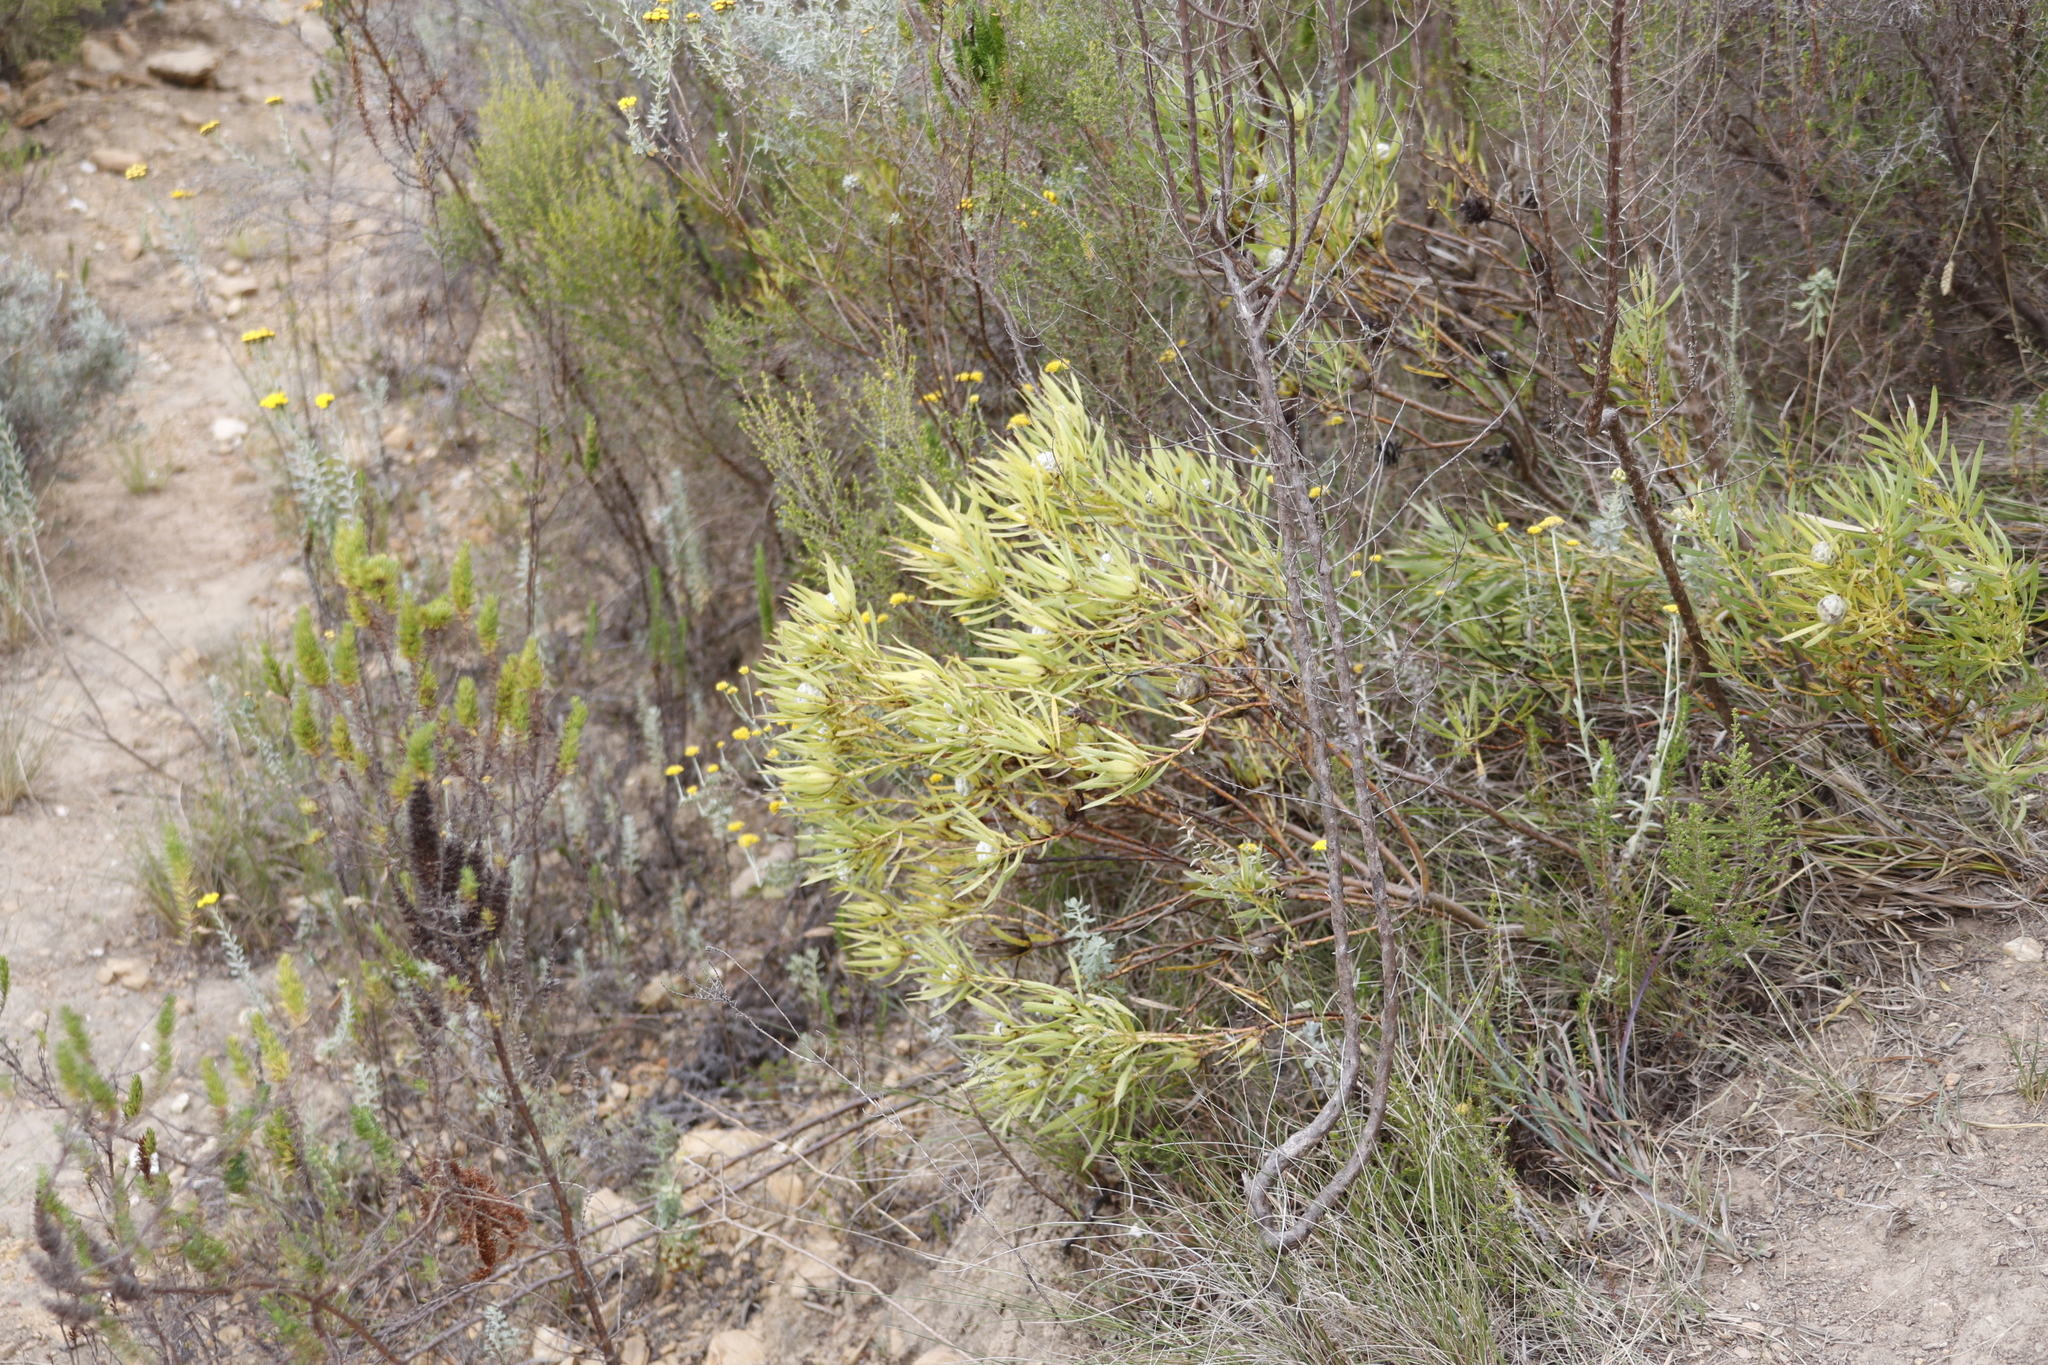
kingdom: Plantae
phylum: Tracheophyta
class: Magnoliopsida
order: Proteales
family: Proteaceae
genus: Leucadendron
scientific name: Leucadendron salignum
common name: Common sunshine conebush
